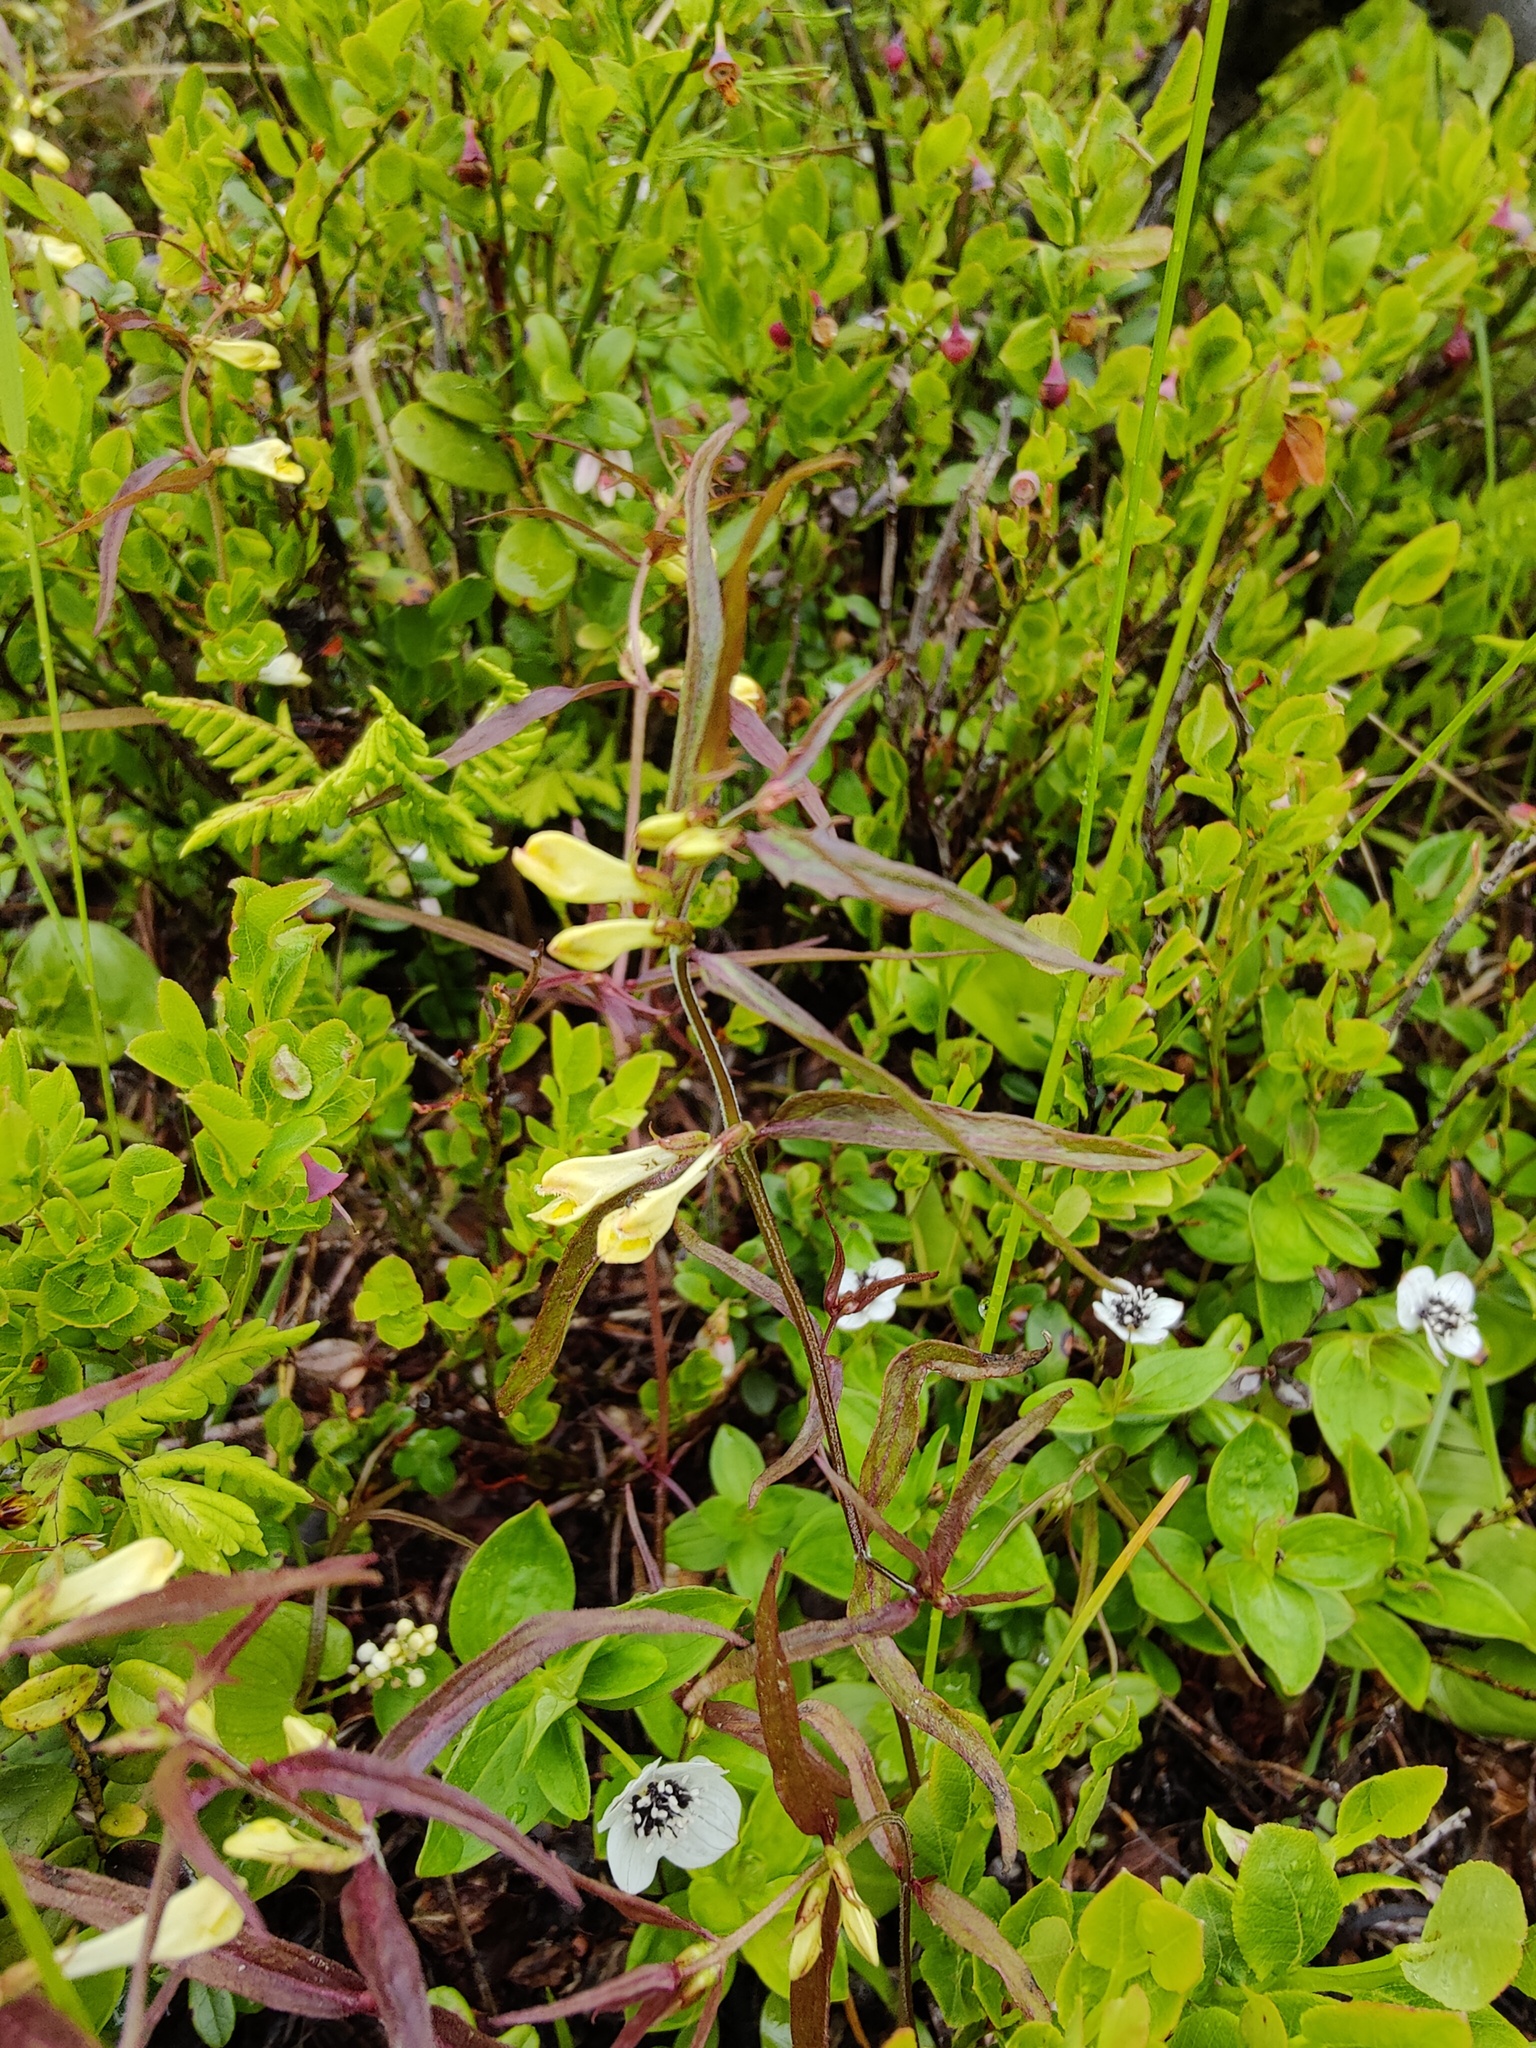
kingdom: Plantae
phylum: Tracheophyta
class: Magnoliopsida
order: Lamiales
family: Orobanchaceae
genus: Melampyrum
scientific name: Melampyrum pratense
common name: Common cow-wheat
